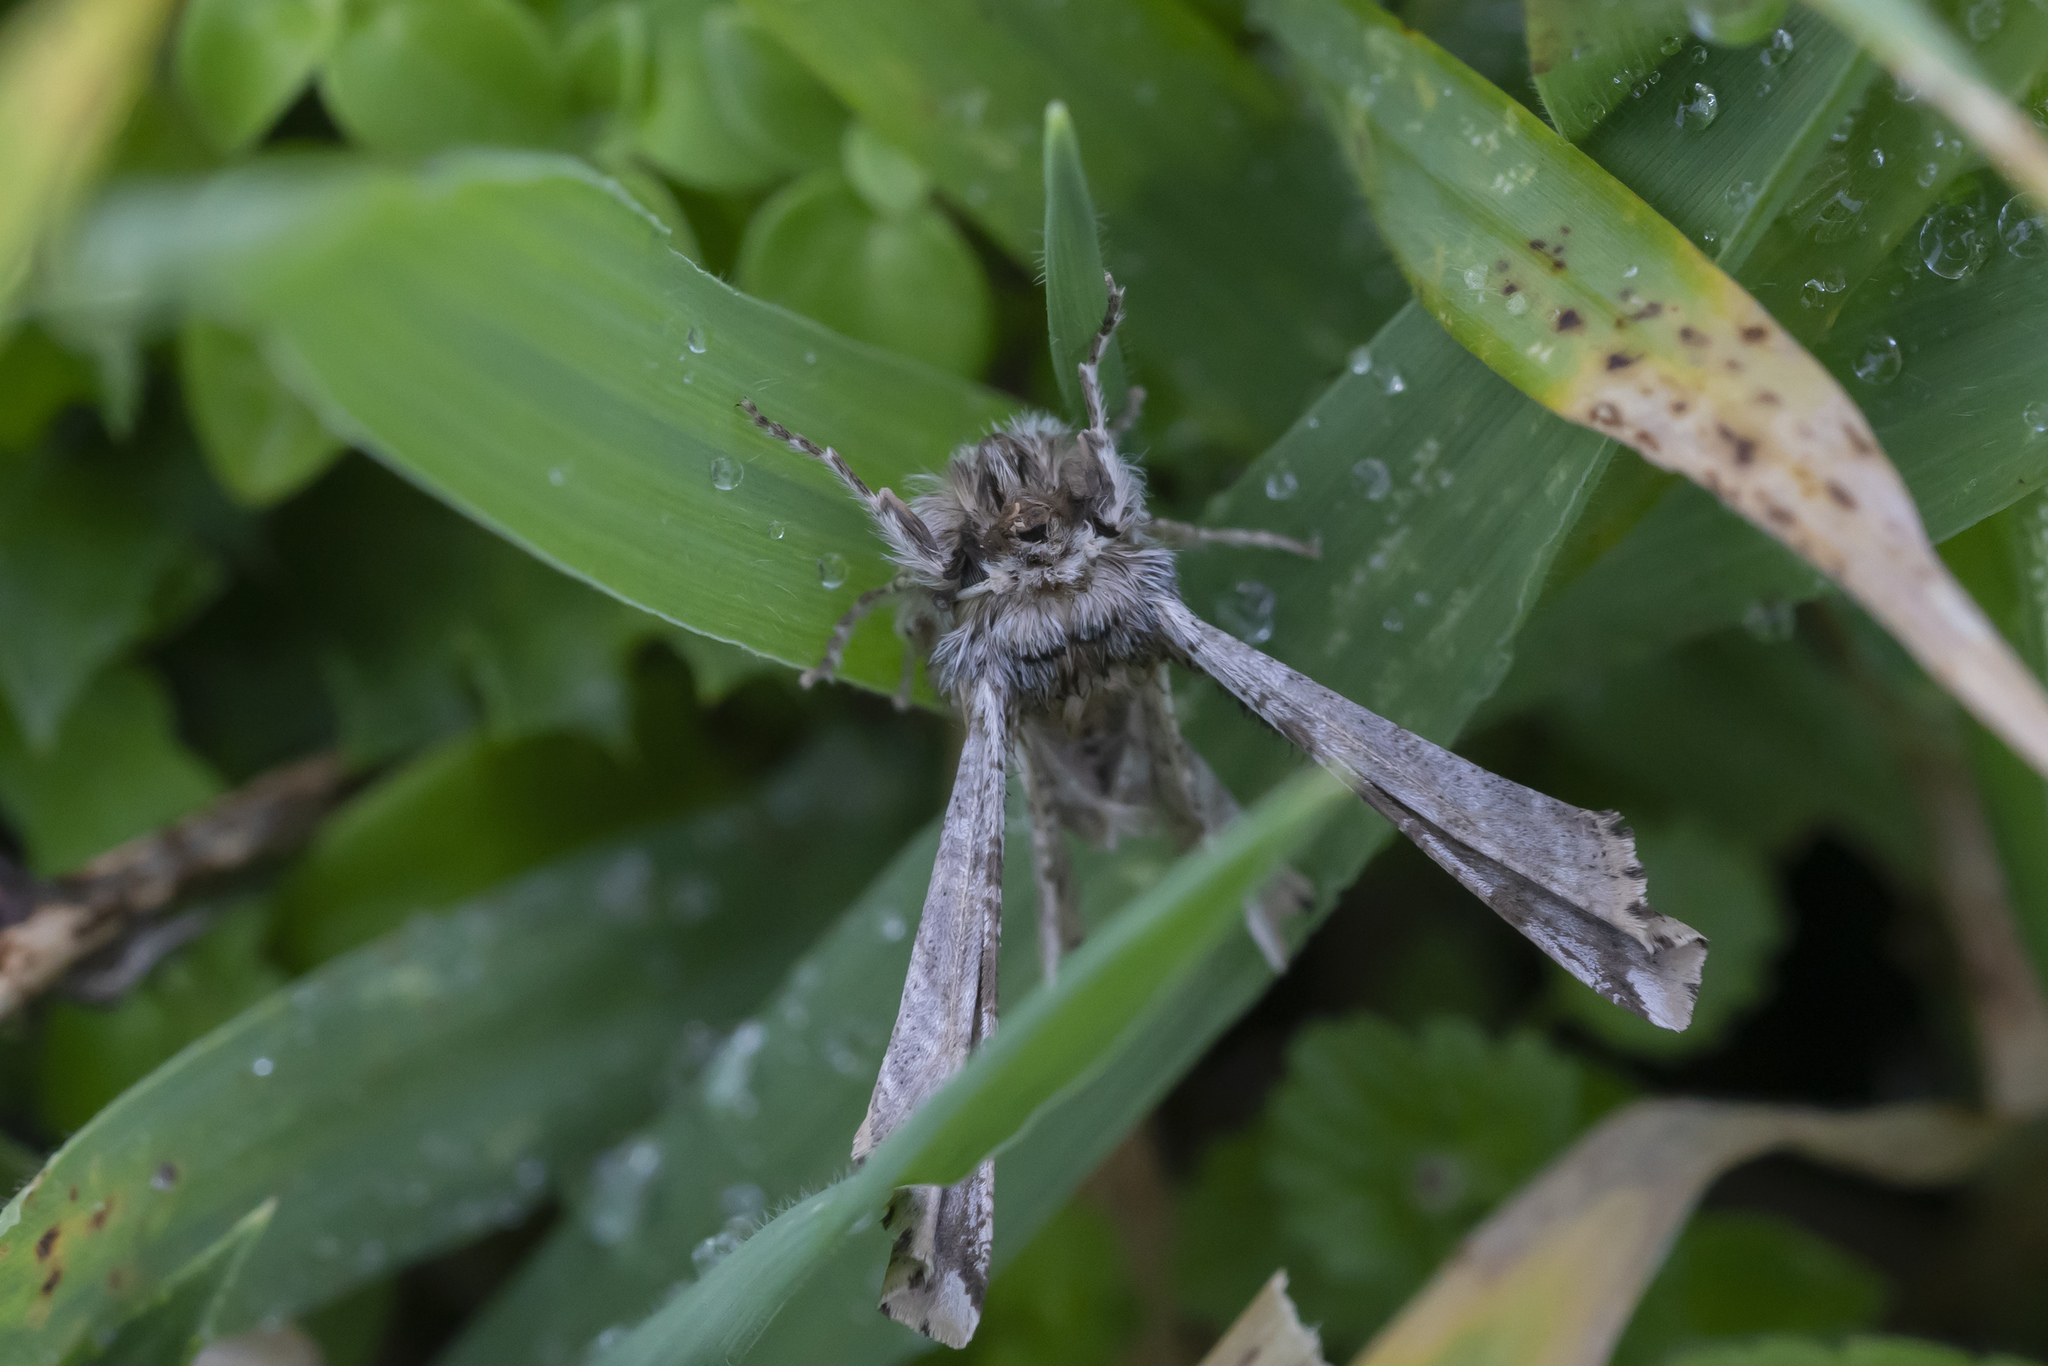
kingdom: Animalia
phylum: Arthropoda
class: Insecta
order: Lepidoptera
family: Geometridae
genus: Apochima
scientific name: Apochima flabellaria
